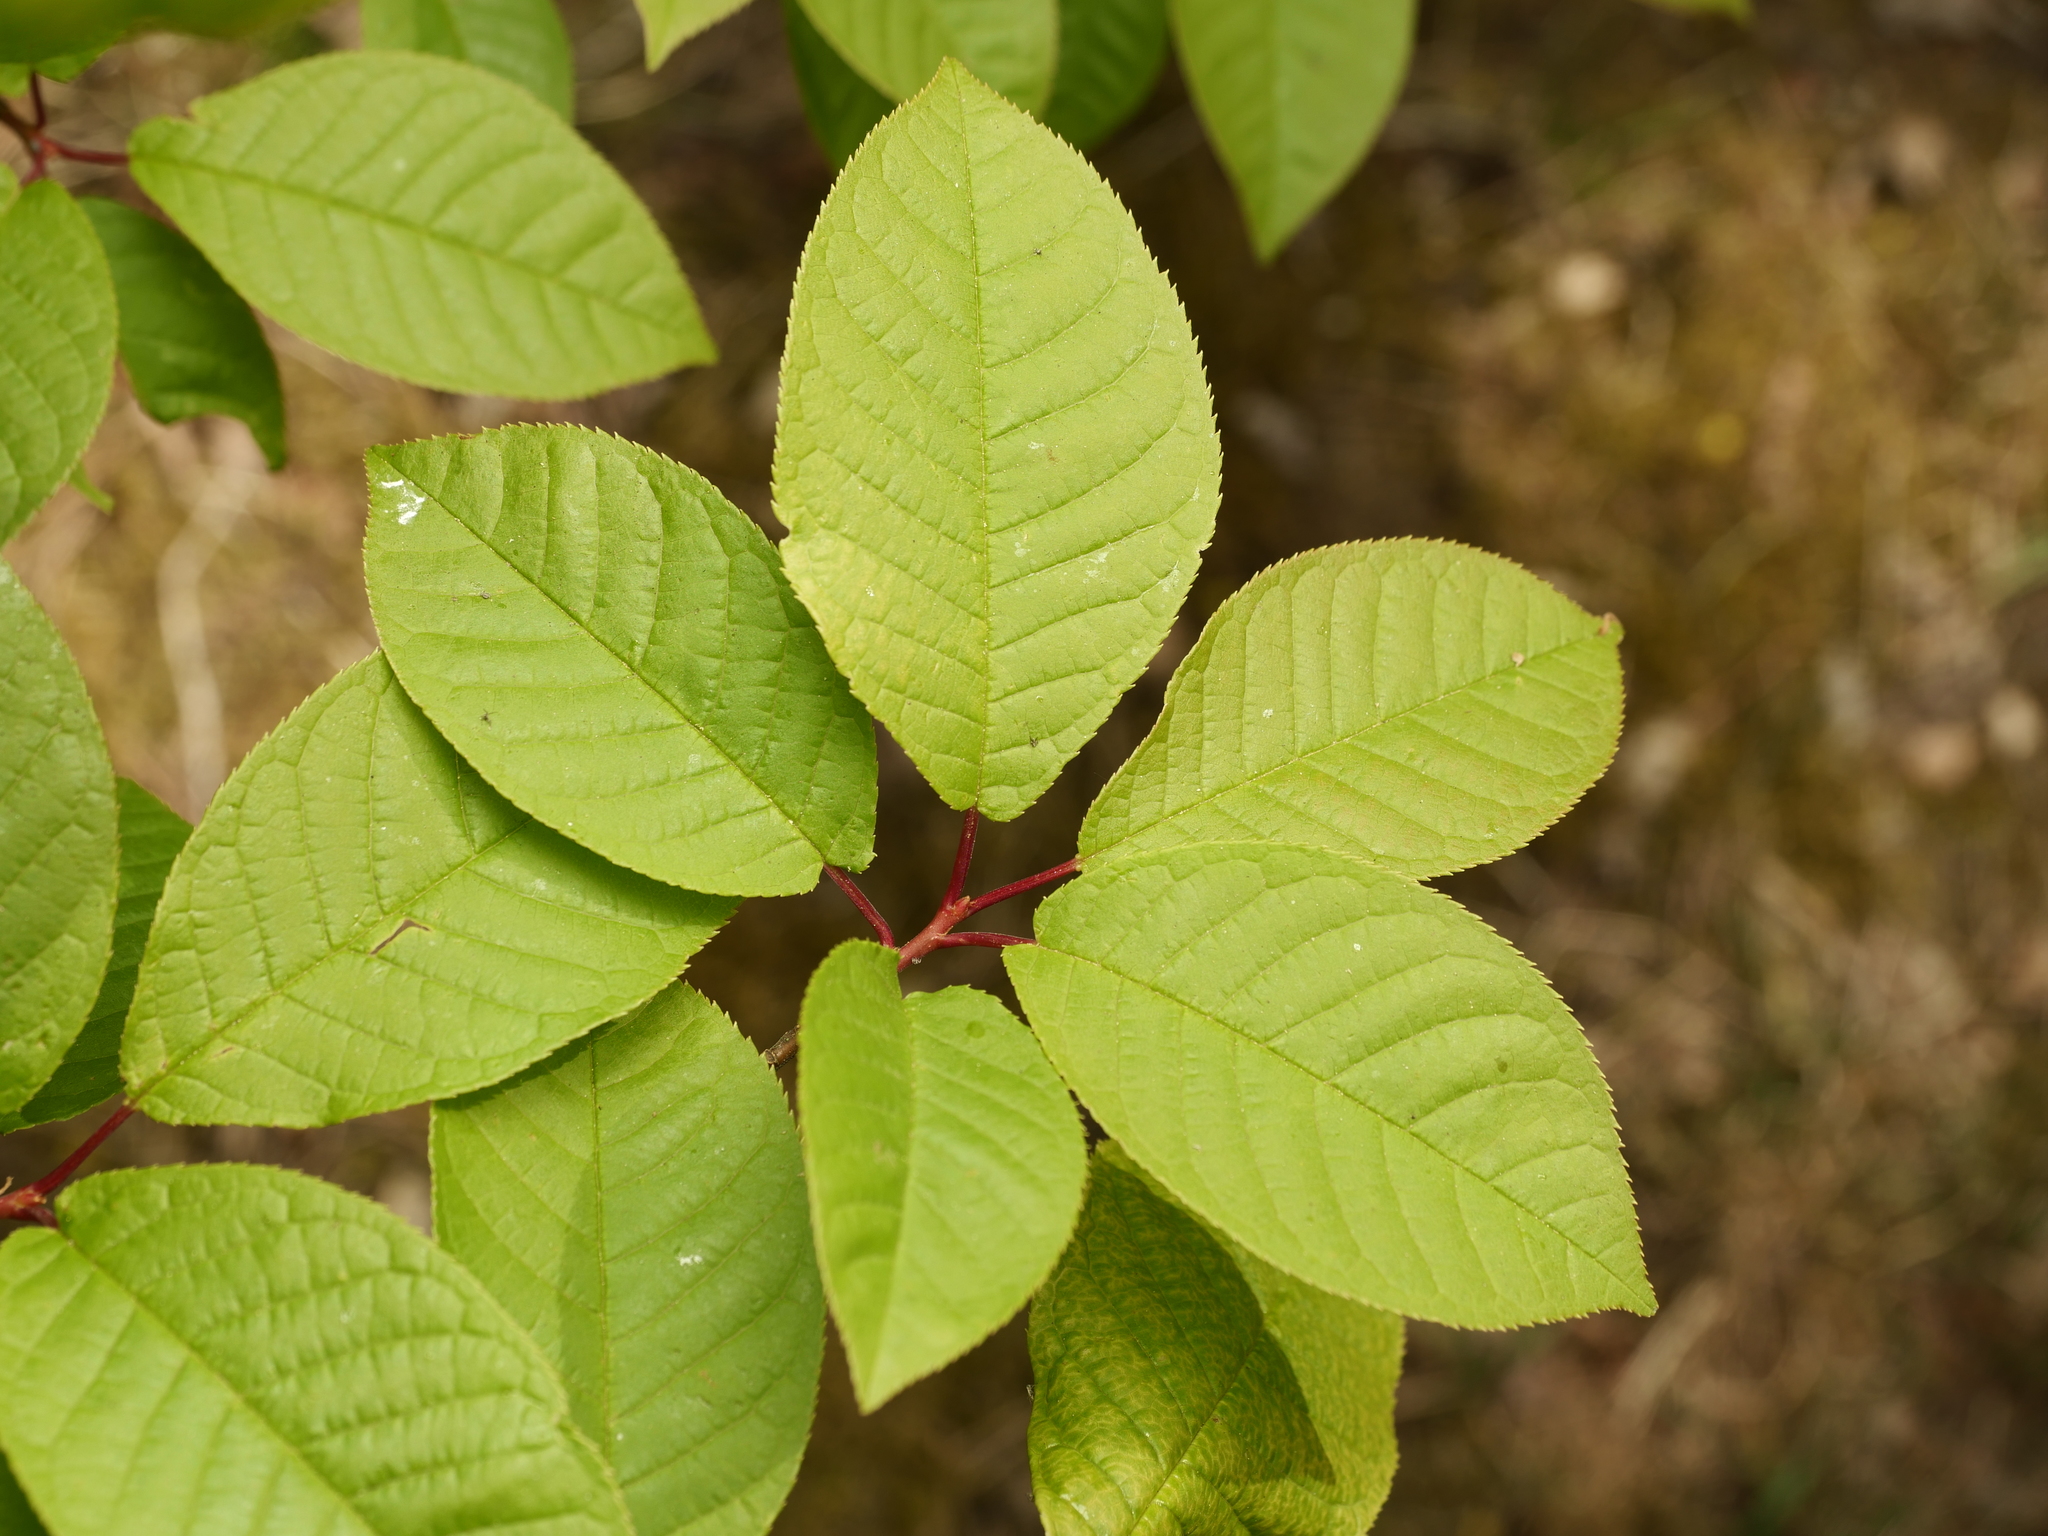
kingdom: Plantae
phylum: Tracheophyta
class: Magnoliopsida
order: Rosales
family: Rosaceae
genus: Prunus
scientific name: Prunus padus
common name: Bird cherry
